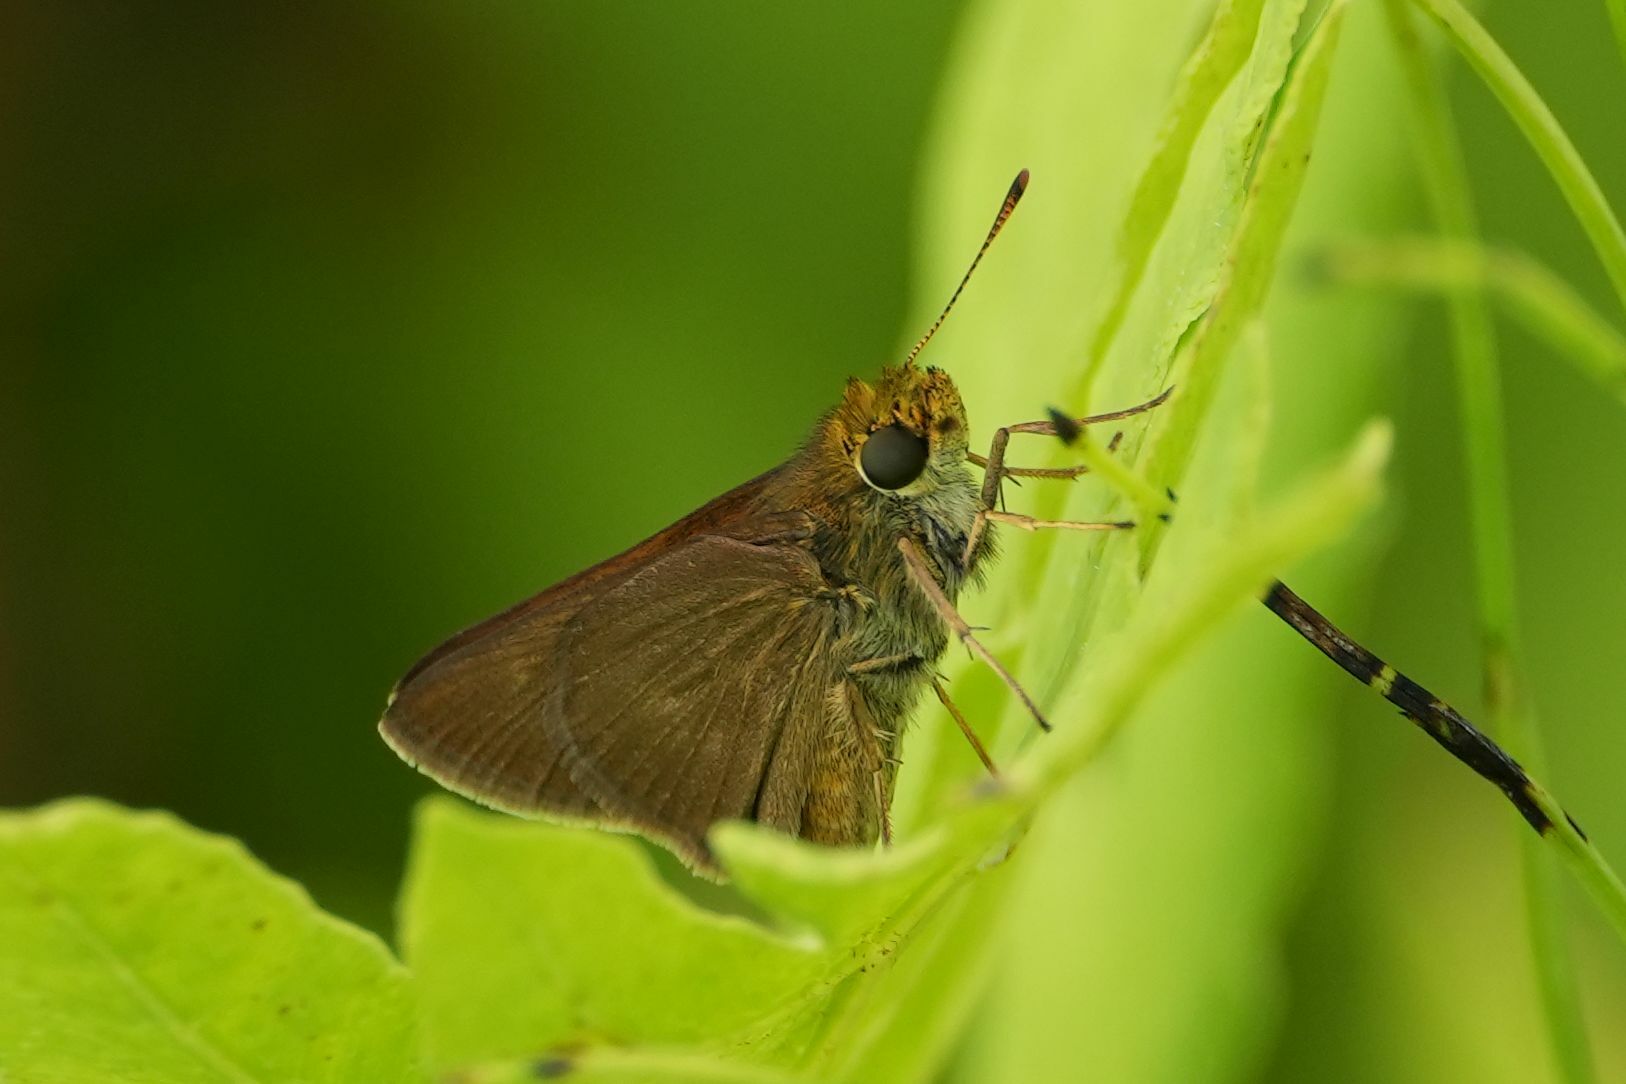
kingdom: Animalia
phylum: Arthropoda
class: Insecta
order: Lepidoptera
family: Hesperiidae
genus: Euphyes
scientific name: Euphyes vestris
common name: Dun skipper
